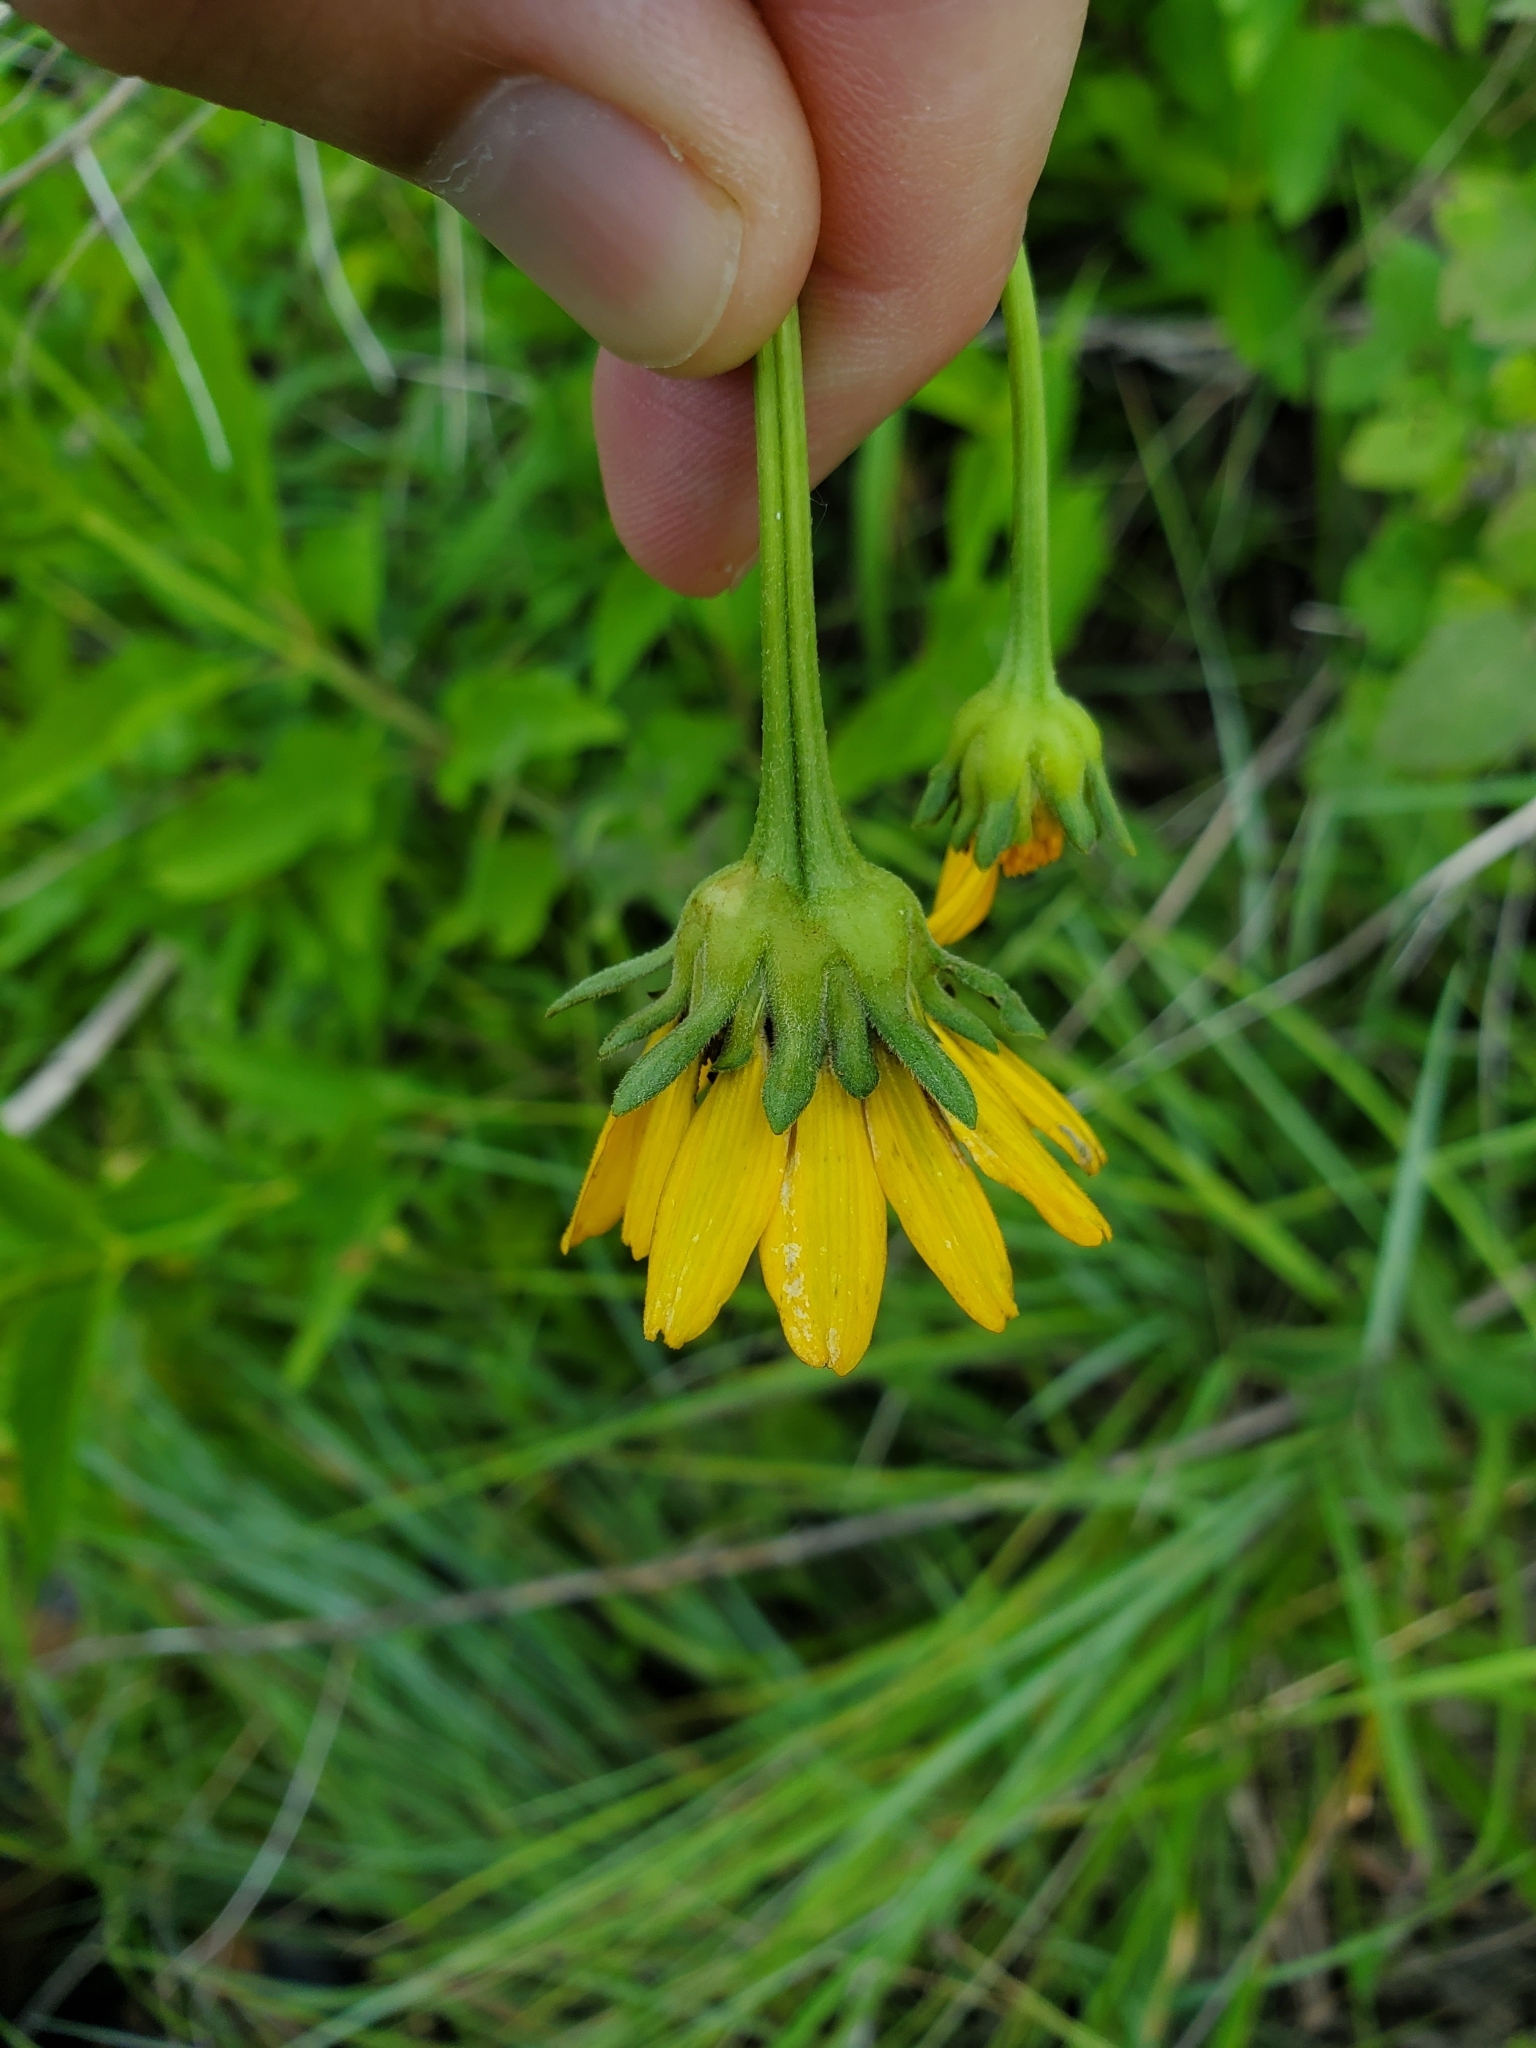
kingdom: Plantae
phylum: Tracheophyta
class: Magnoliopsida
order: Asterales
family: Asteraceae
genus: Heliopsis
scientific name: Heliopsis helianthoides
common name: False sunflower
